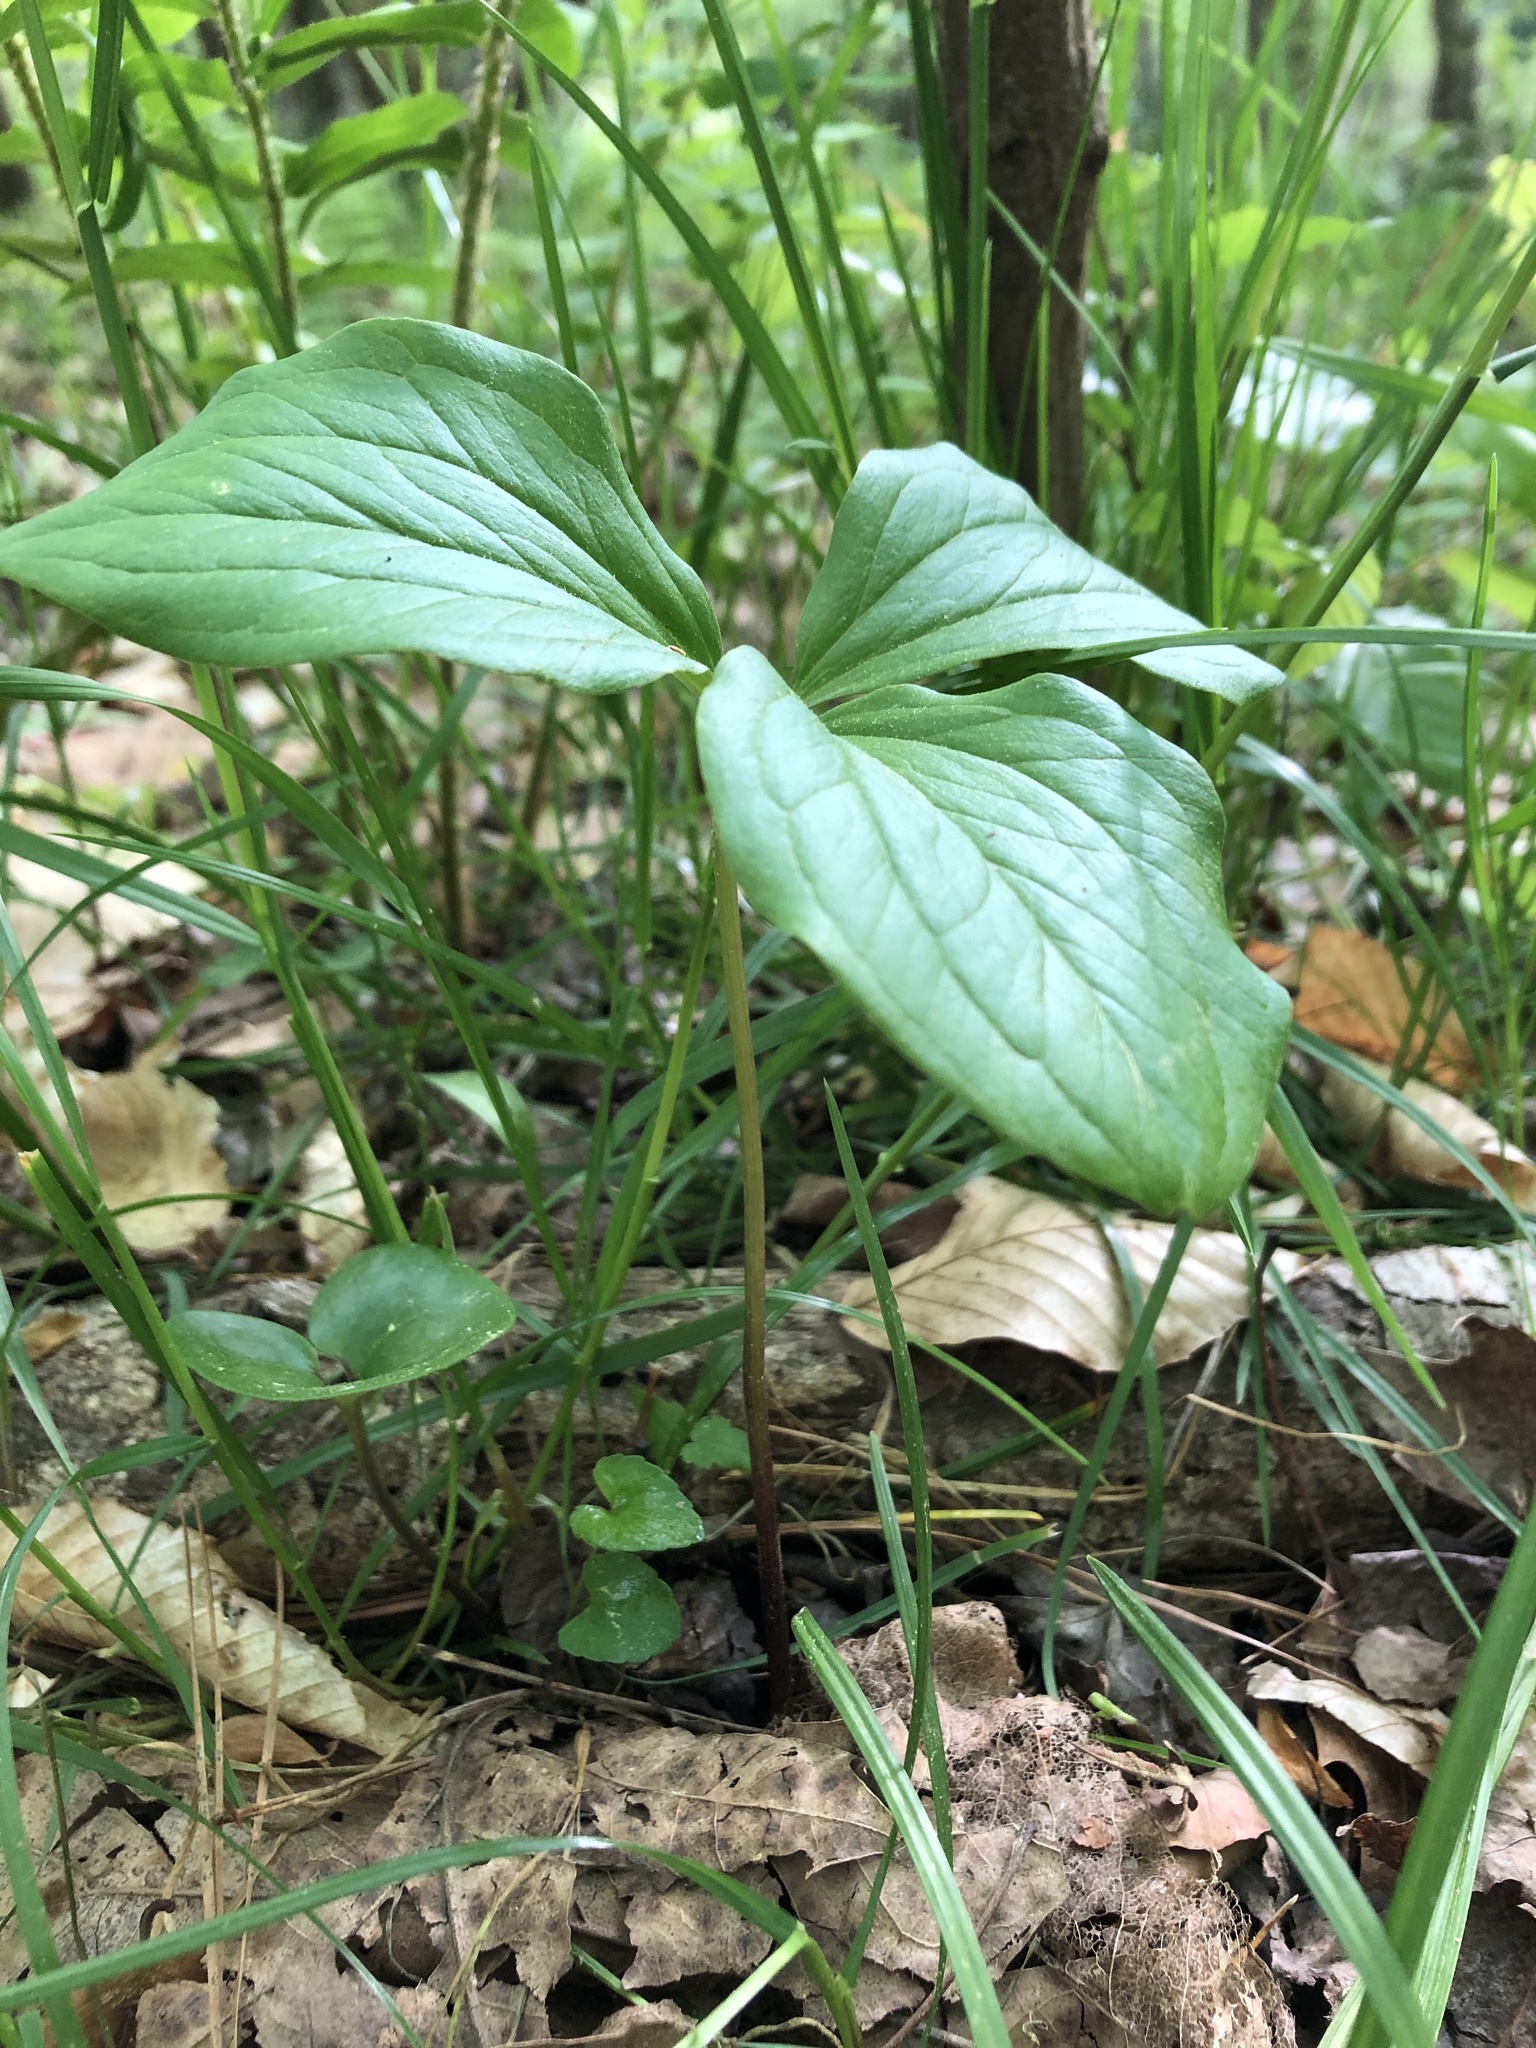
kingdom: Plantae
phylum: Tracheophyta
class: Liliopsida
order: Liliales
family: Melanthiaceae
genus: Trillium
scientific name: Trillium catesbaei
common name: Bashful trillium
